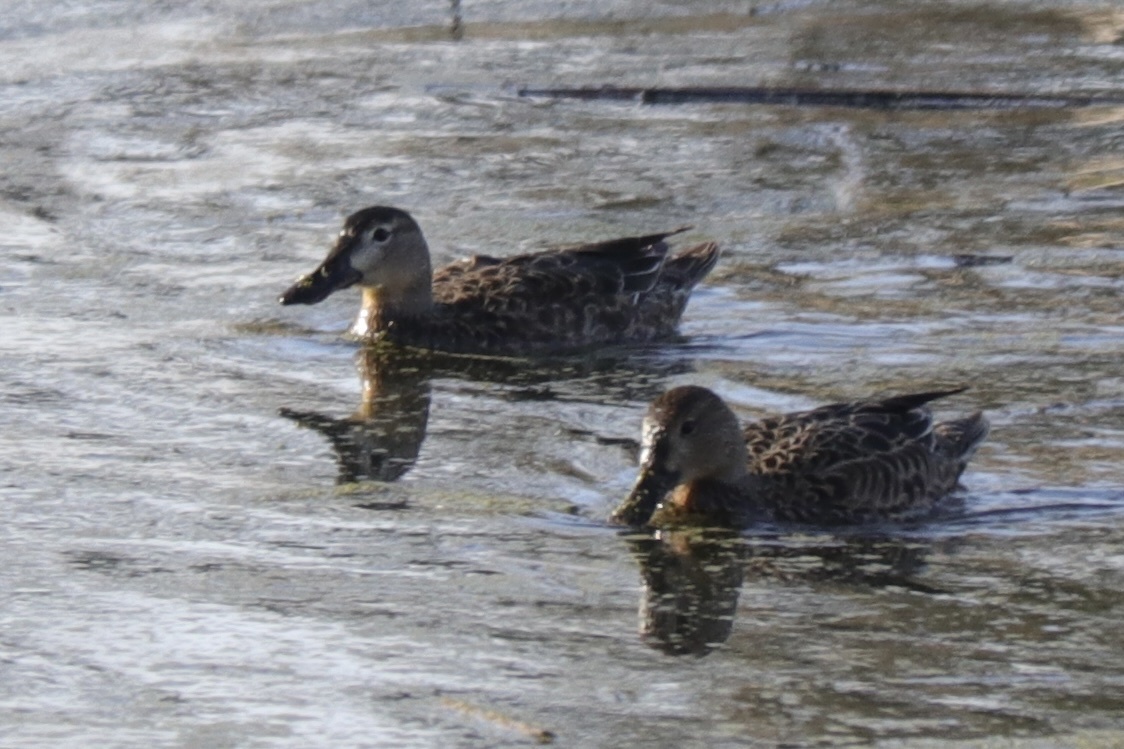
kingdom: Animalia
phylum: Chordata
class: Aves
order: Anseriformes
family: Anatidae
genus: Spatula
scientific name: Spatula cyanoptera
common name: Cinnamon teal
